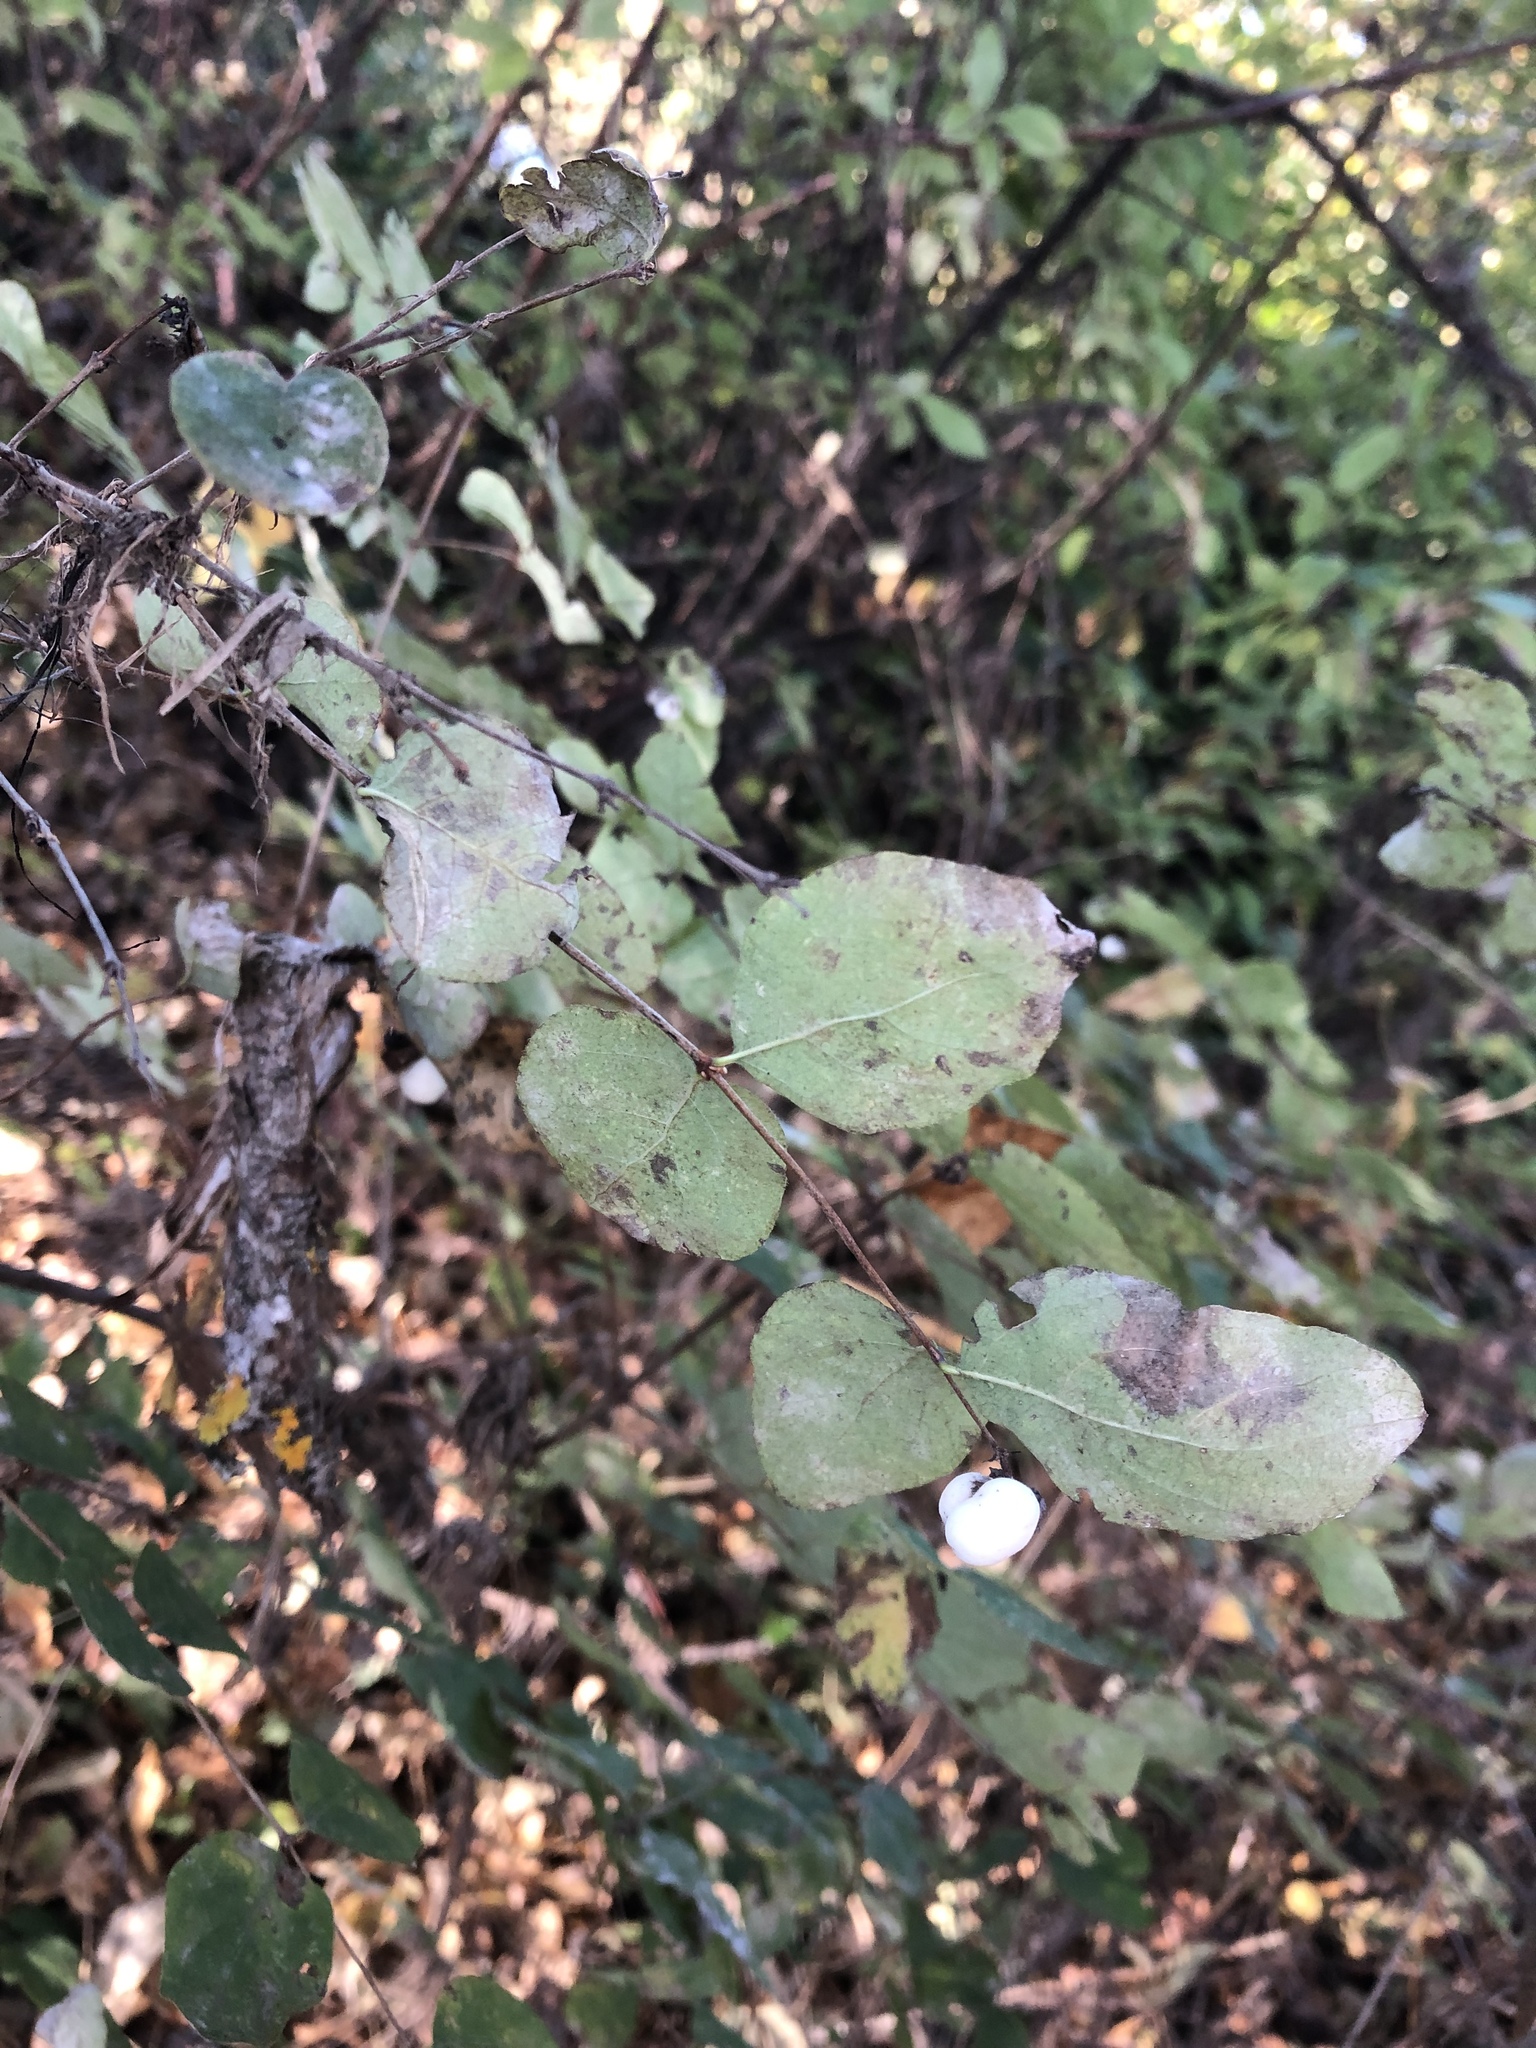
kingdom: Plantae
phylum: Tracheophyta
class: Magnoliopsida
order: Dipsacales
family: Caprifoliaceae
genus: Symphoricarpos
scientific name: Symphoricarpos albus
